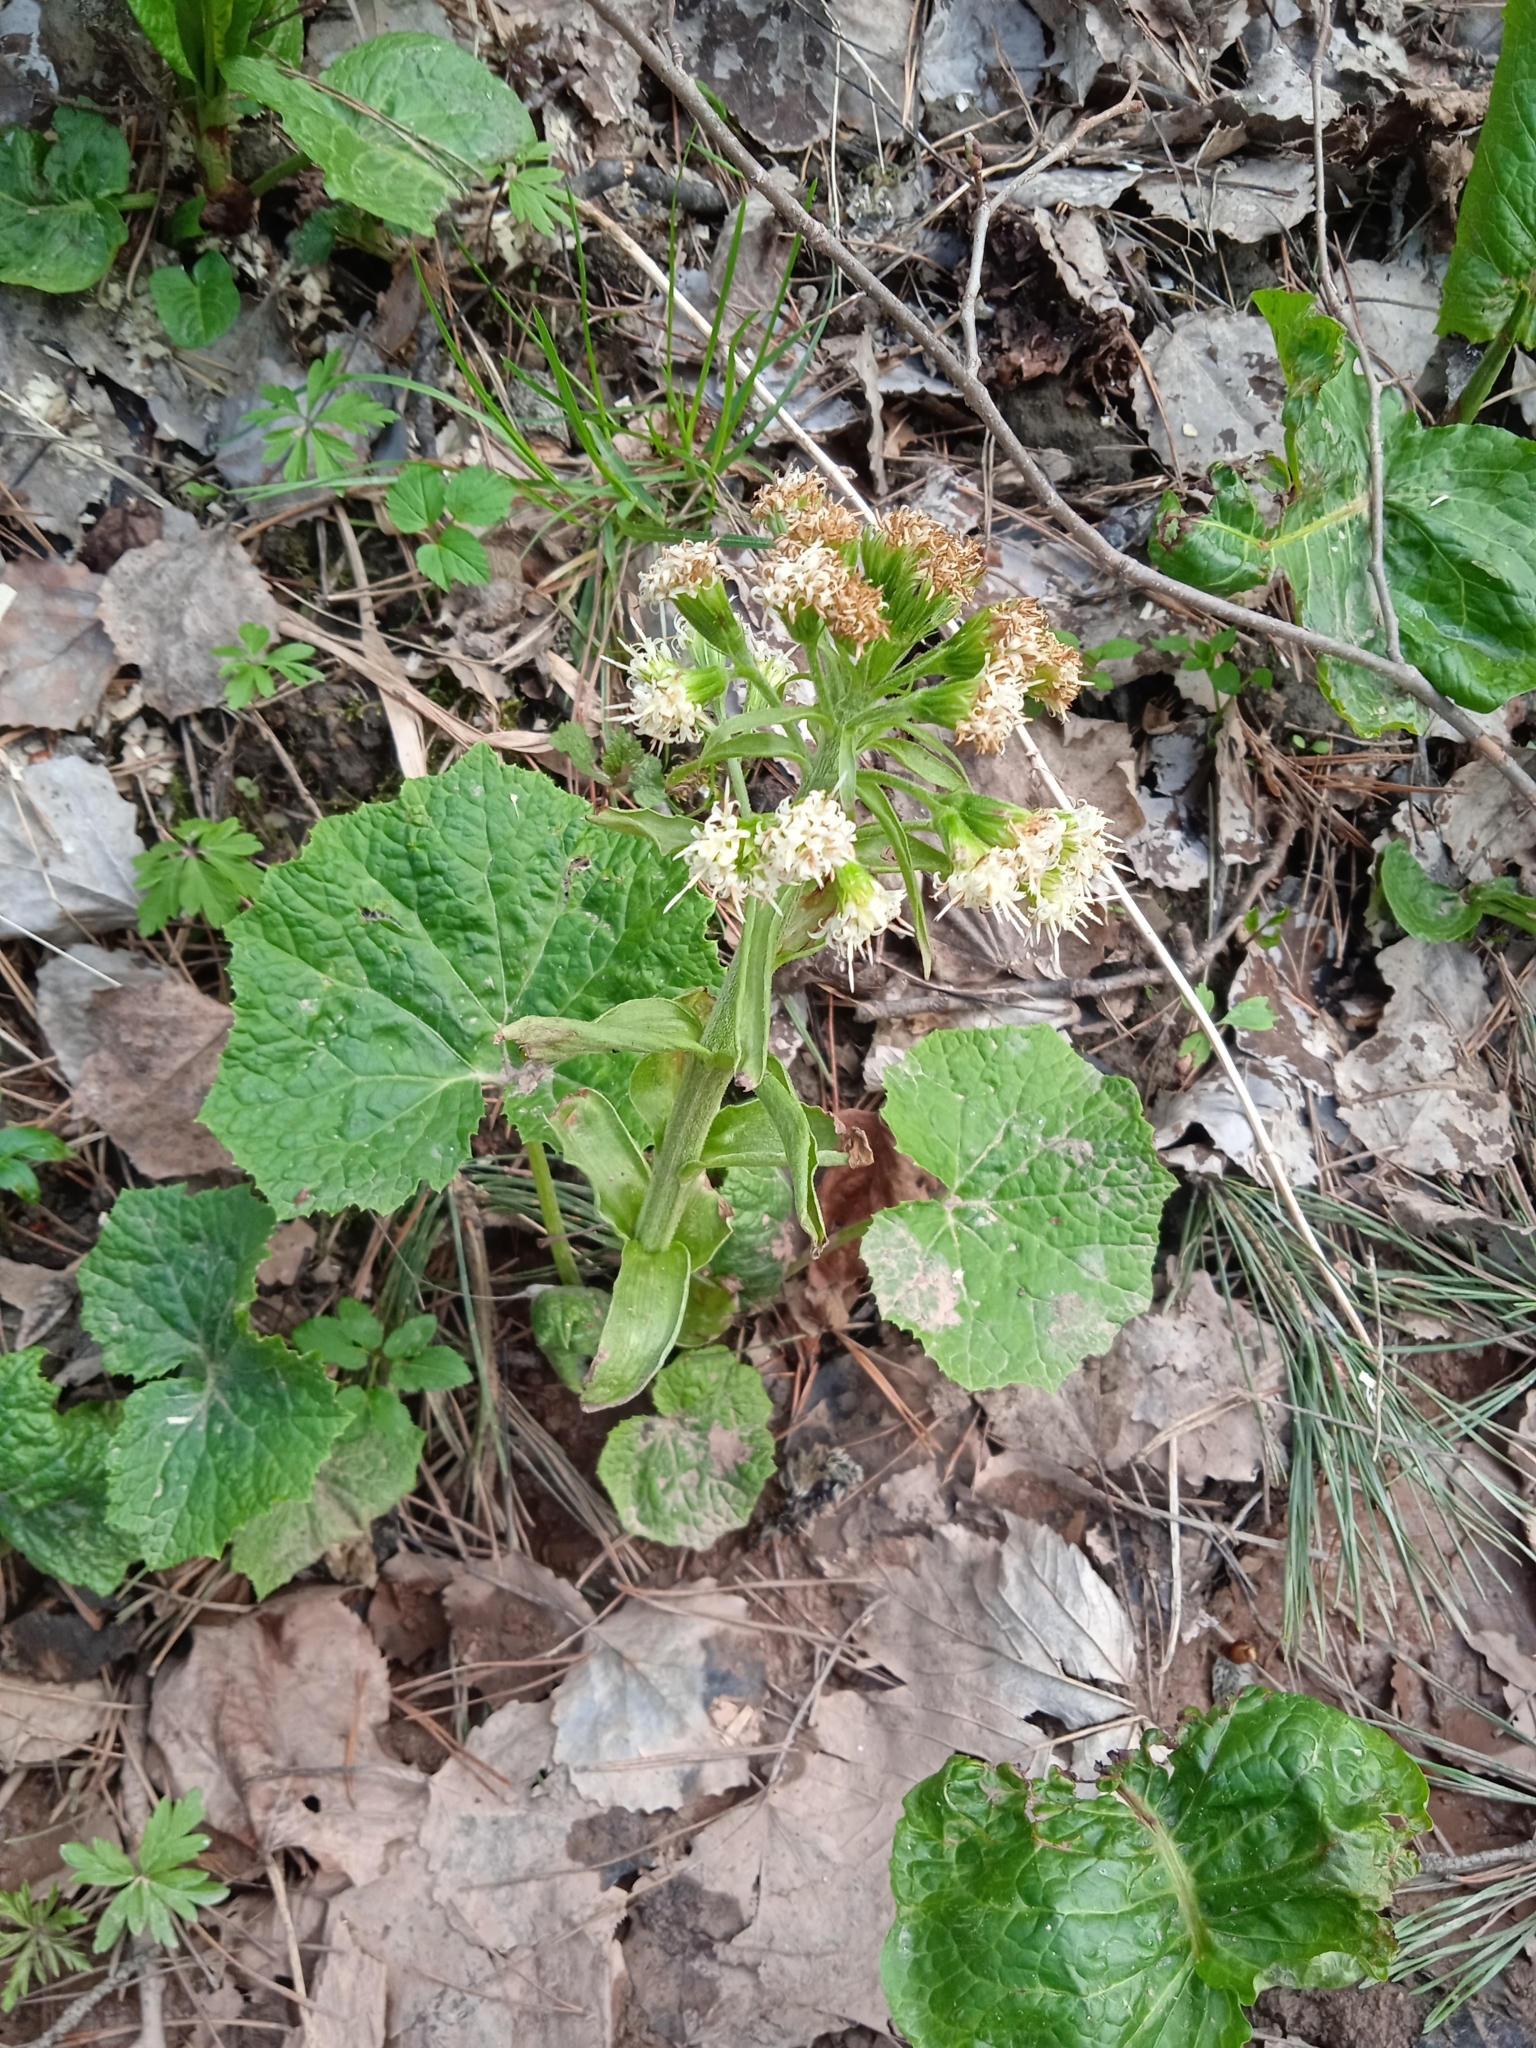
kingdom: Plantae
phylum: Tracheophyta
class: Magnoliopsida
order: Asterales
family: Asteraceae
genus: Petasites
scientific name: Petasites albus
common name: White butterbur
